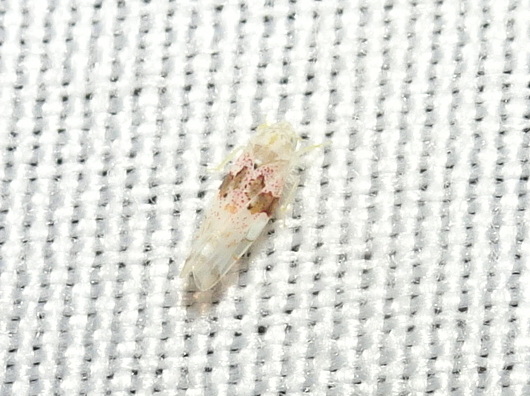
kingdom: Animalia
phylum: Arthropoda
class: Insecta
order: Hemiptera
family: Cicadellidae
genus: Hymetta
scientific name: Hymetta balteata
